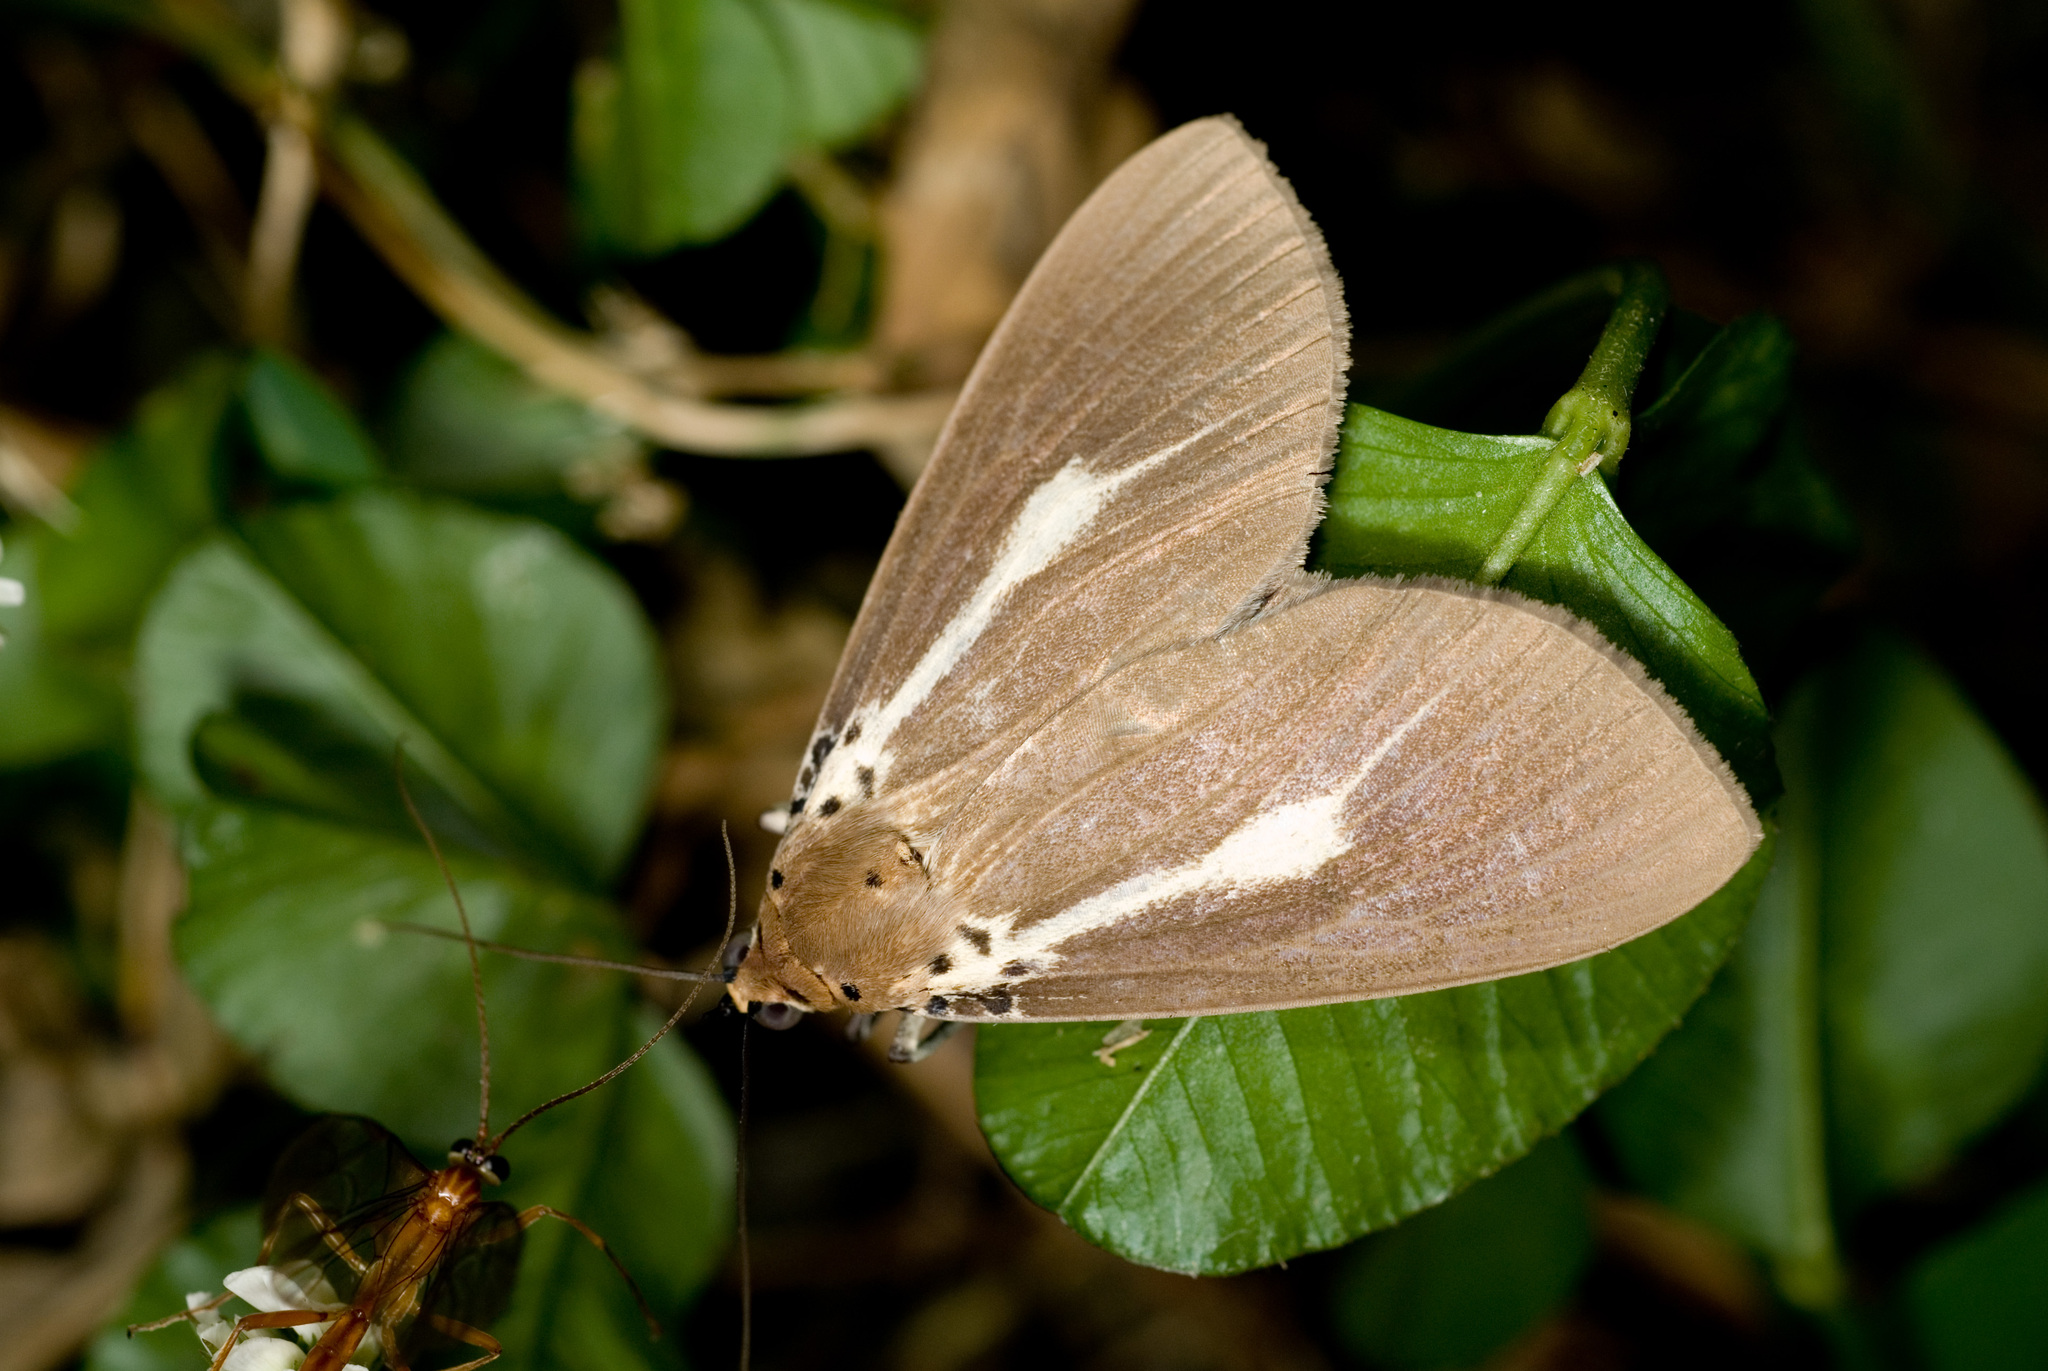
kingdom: Animalia
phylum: Arthropoda
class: Insecta
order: Lepidoptera
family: Erebidae
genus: Asota
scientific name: Asota heliconia
